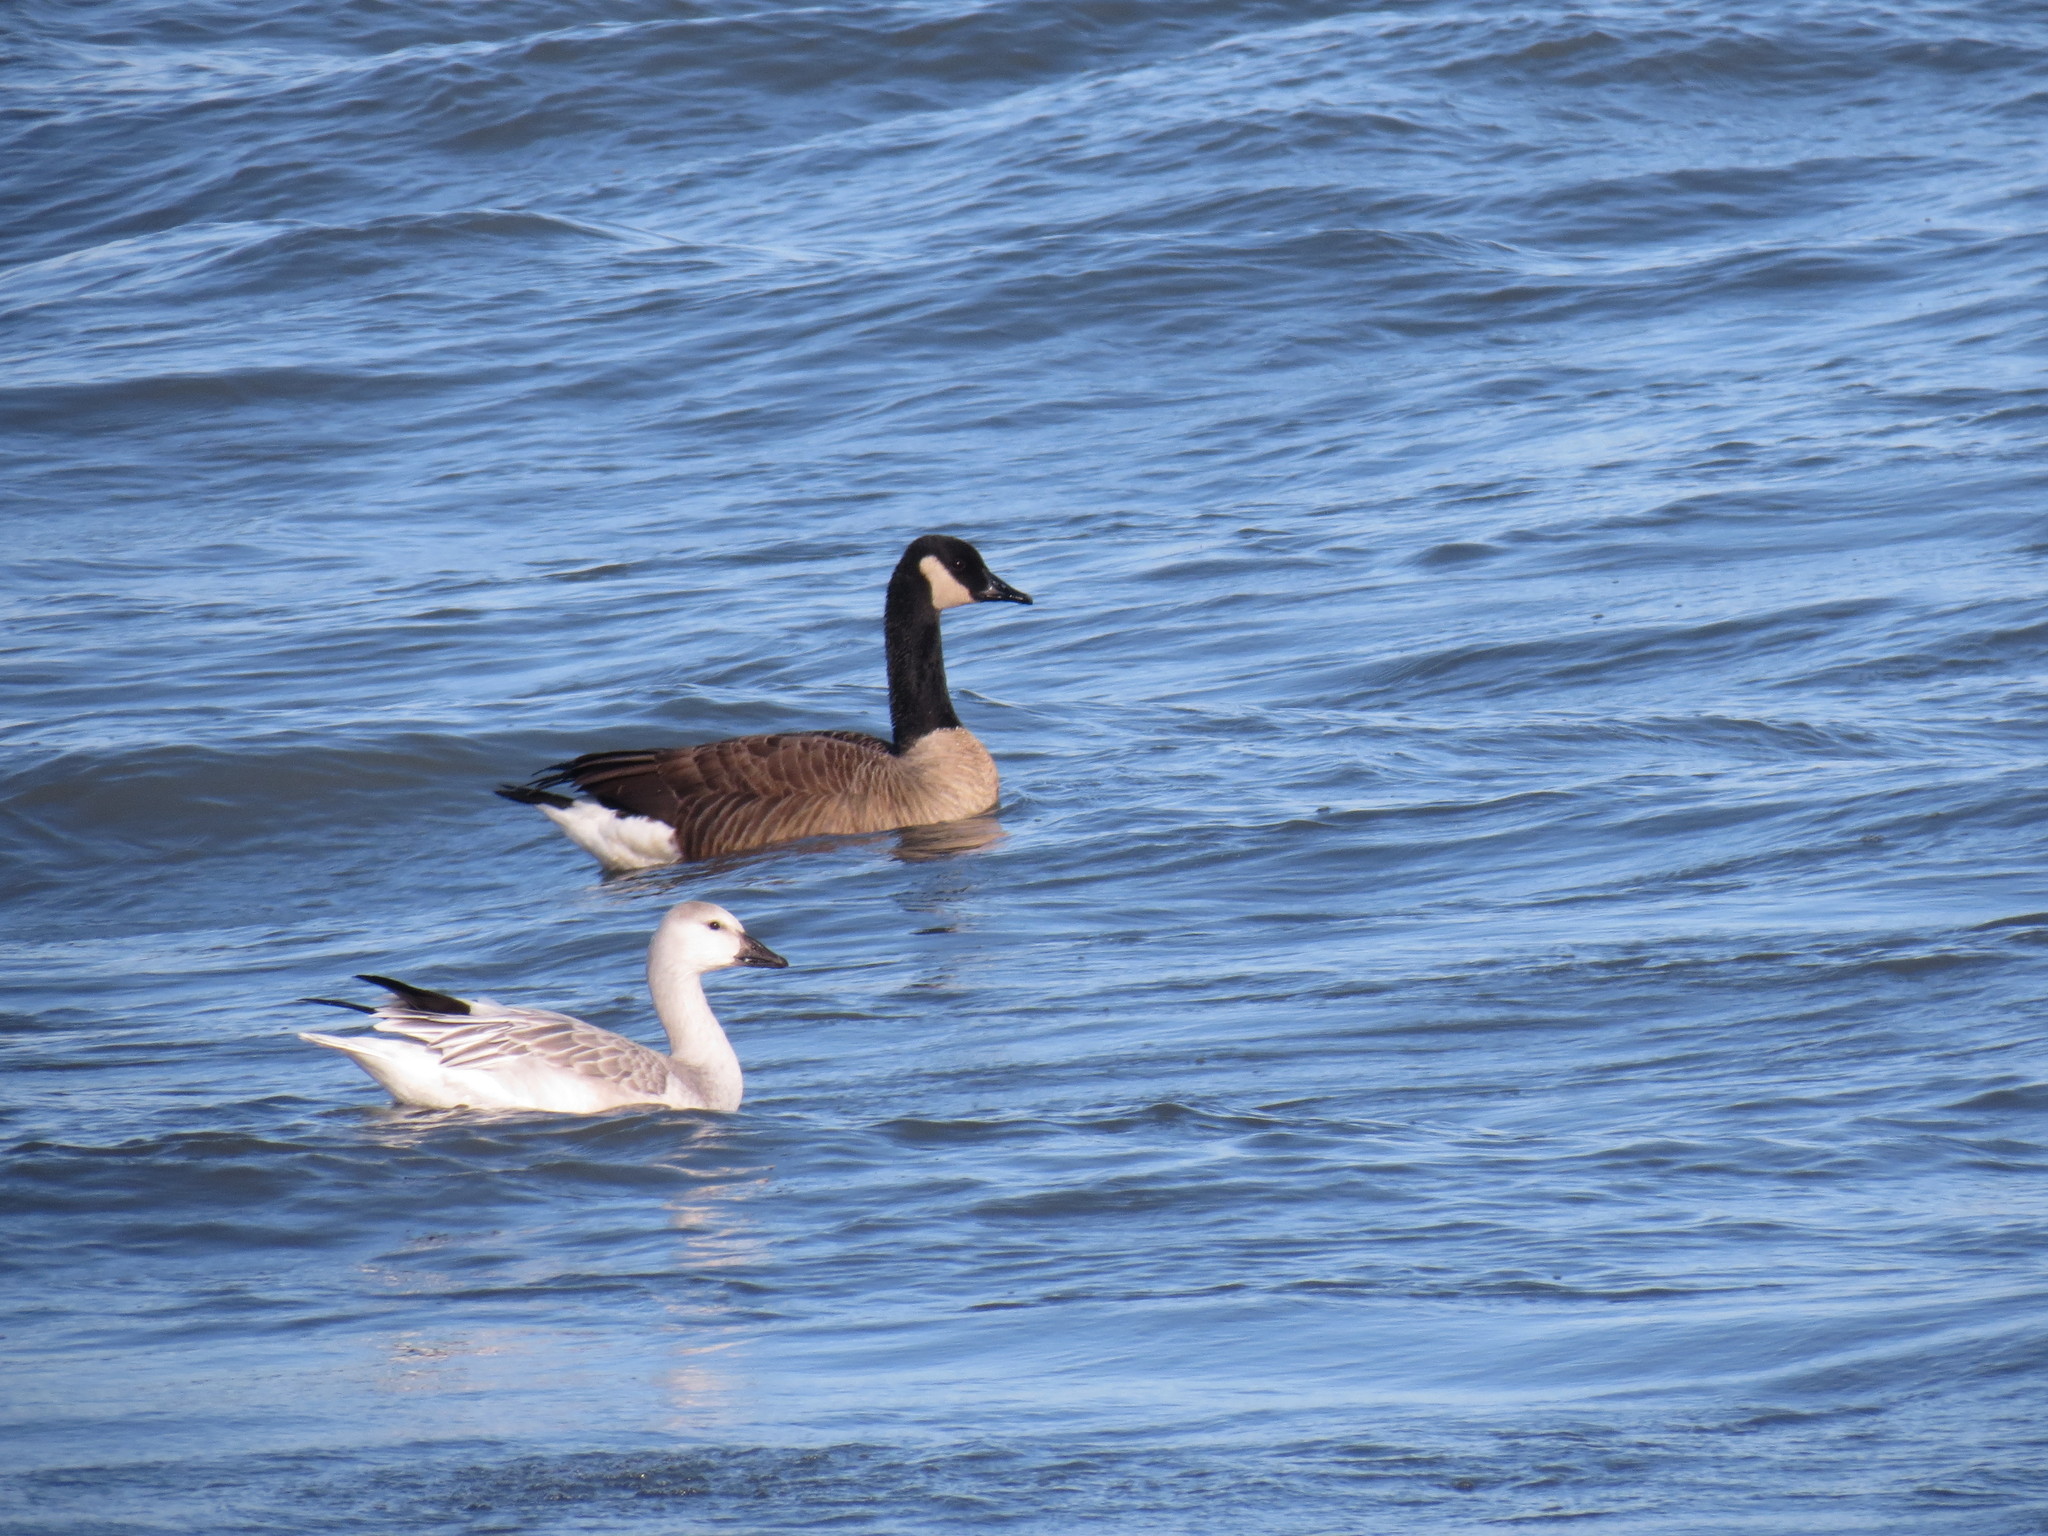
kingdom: Animalia
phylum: Chordata
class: Aves
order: Anseriformes
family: Anatidae
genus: Anser
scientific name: Anser caerulescens
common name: Snow goose
